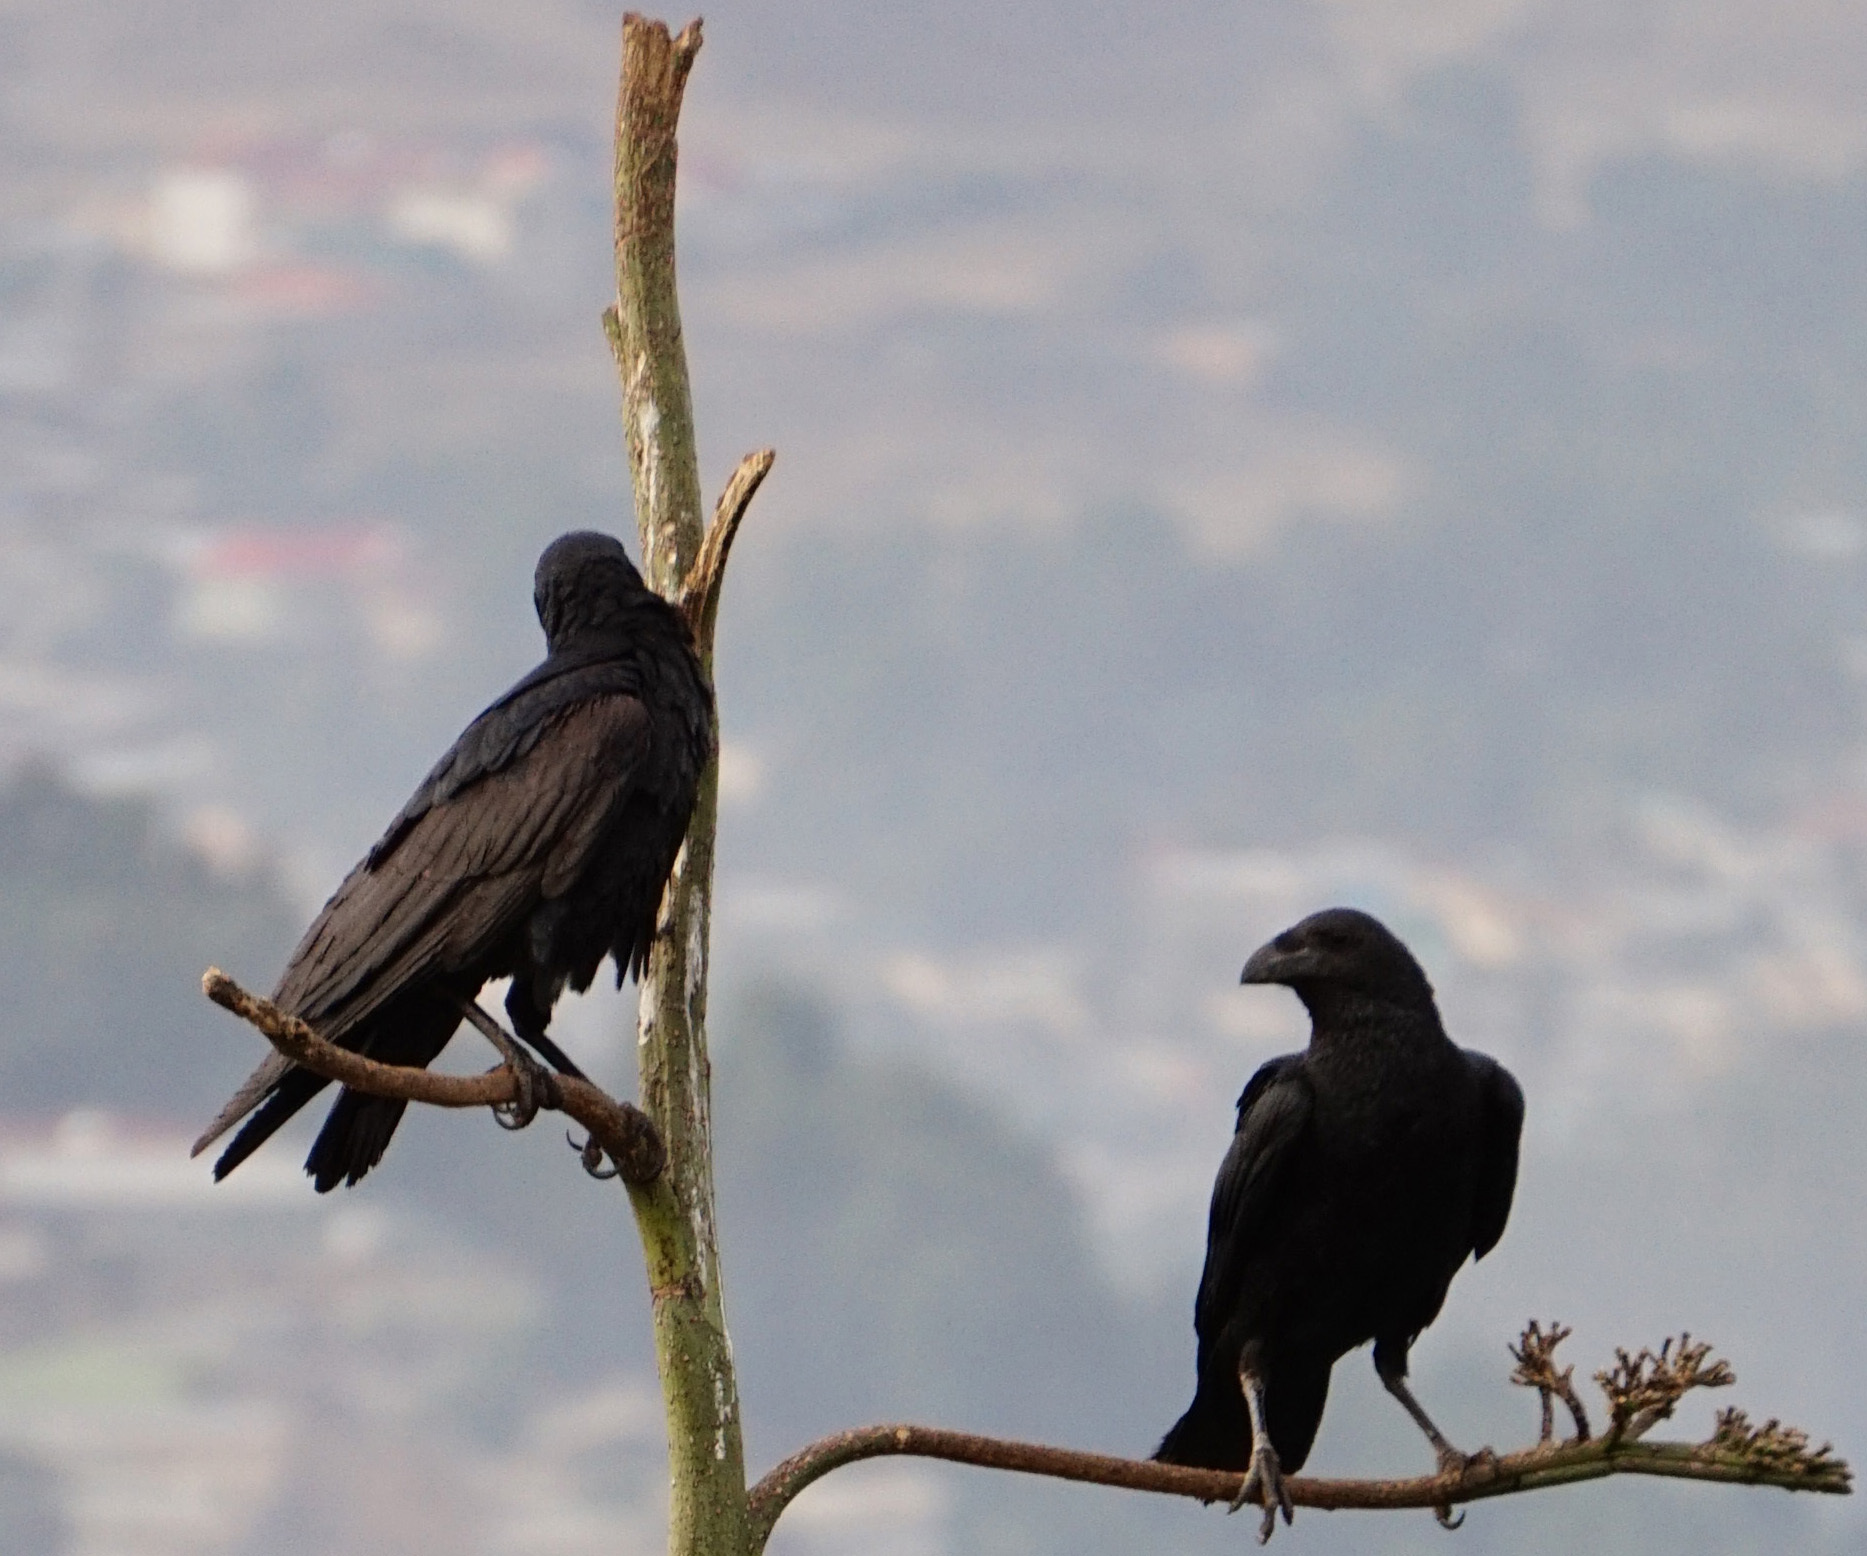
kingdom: Animalia
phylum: Chordata
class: Aves
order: Passeriformes
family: Corvidae
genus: Corvus
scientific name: Corvus rhipidurus
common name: Fan-tailed raven
